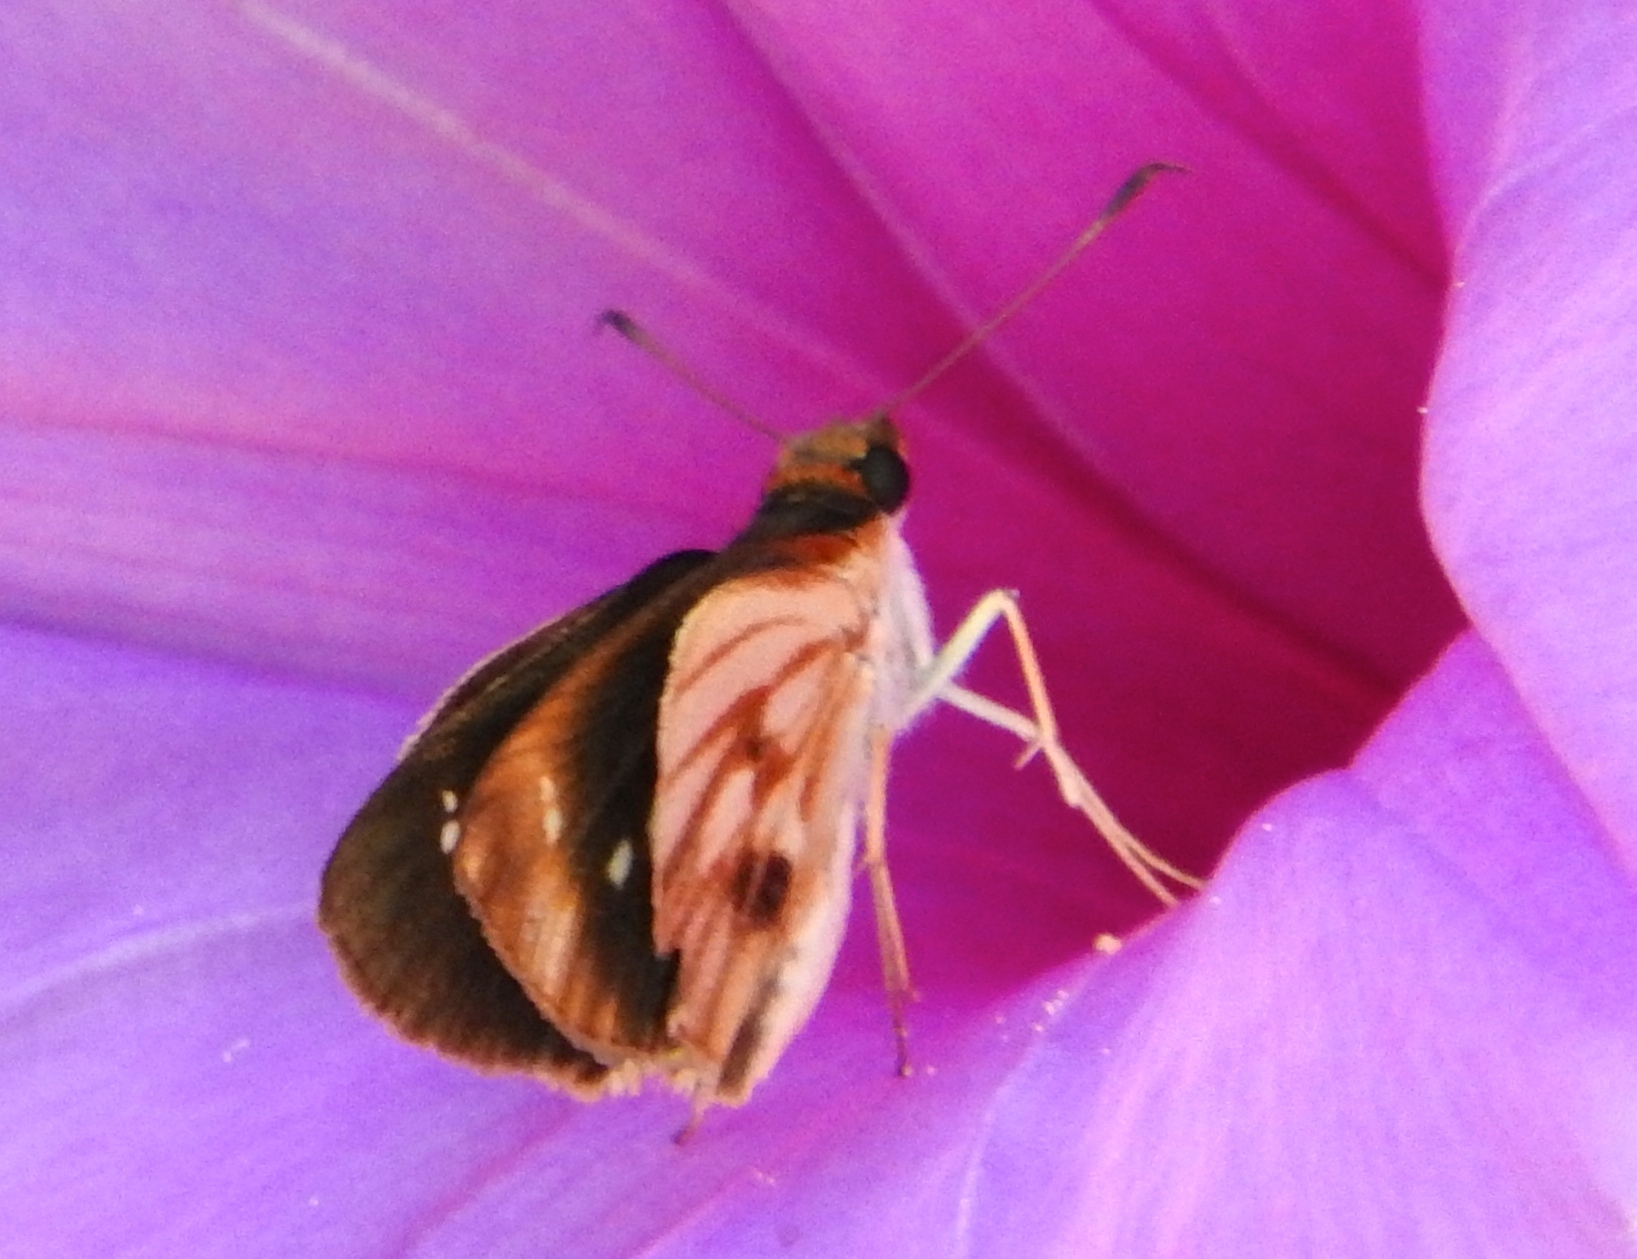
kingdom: Animalia
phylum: Arthropoda
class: Insecta
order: Lepidoptera
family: Hesperiidae
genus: Troyus
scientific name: Troyus fantasos
